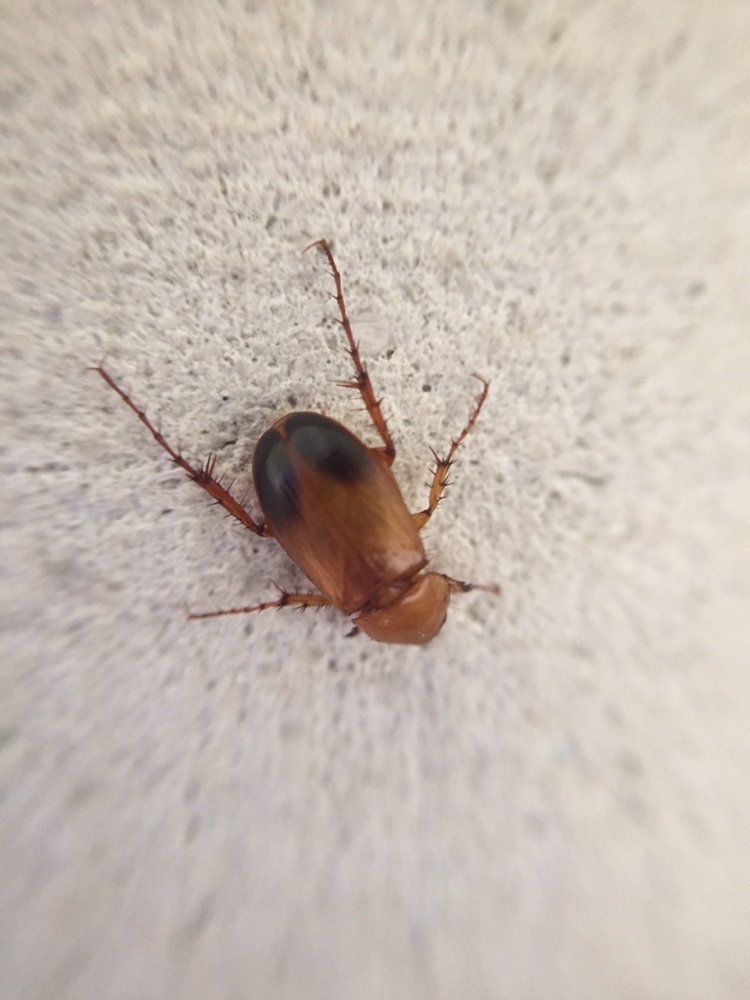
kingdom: Animalia
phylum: Arthropoda
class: Insecta
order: Coleoptera
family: Scarabaeidae
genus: Phyllotocus
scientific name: Phyllotocus macleayi
